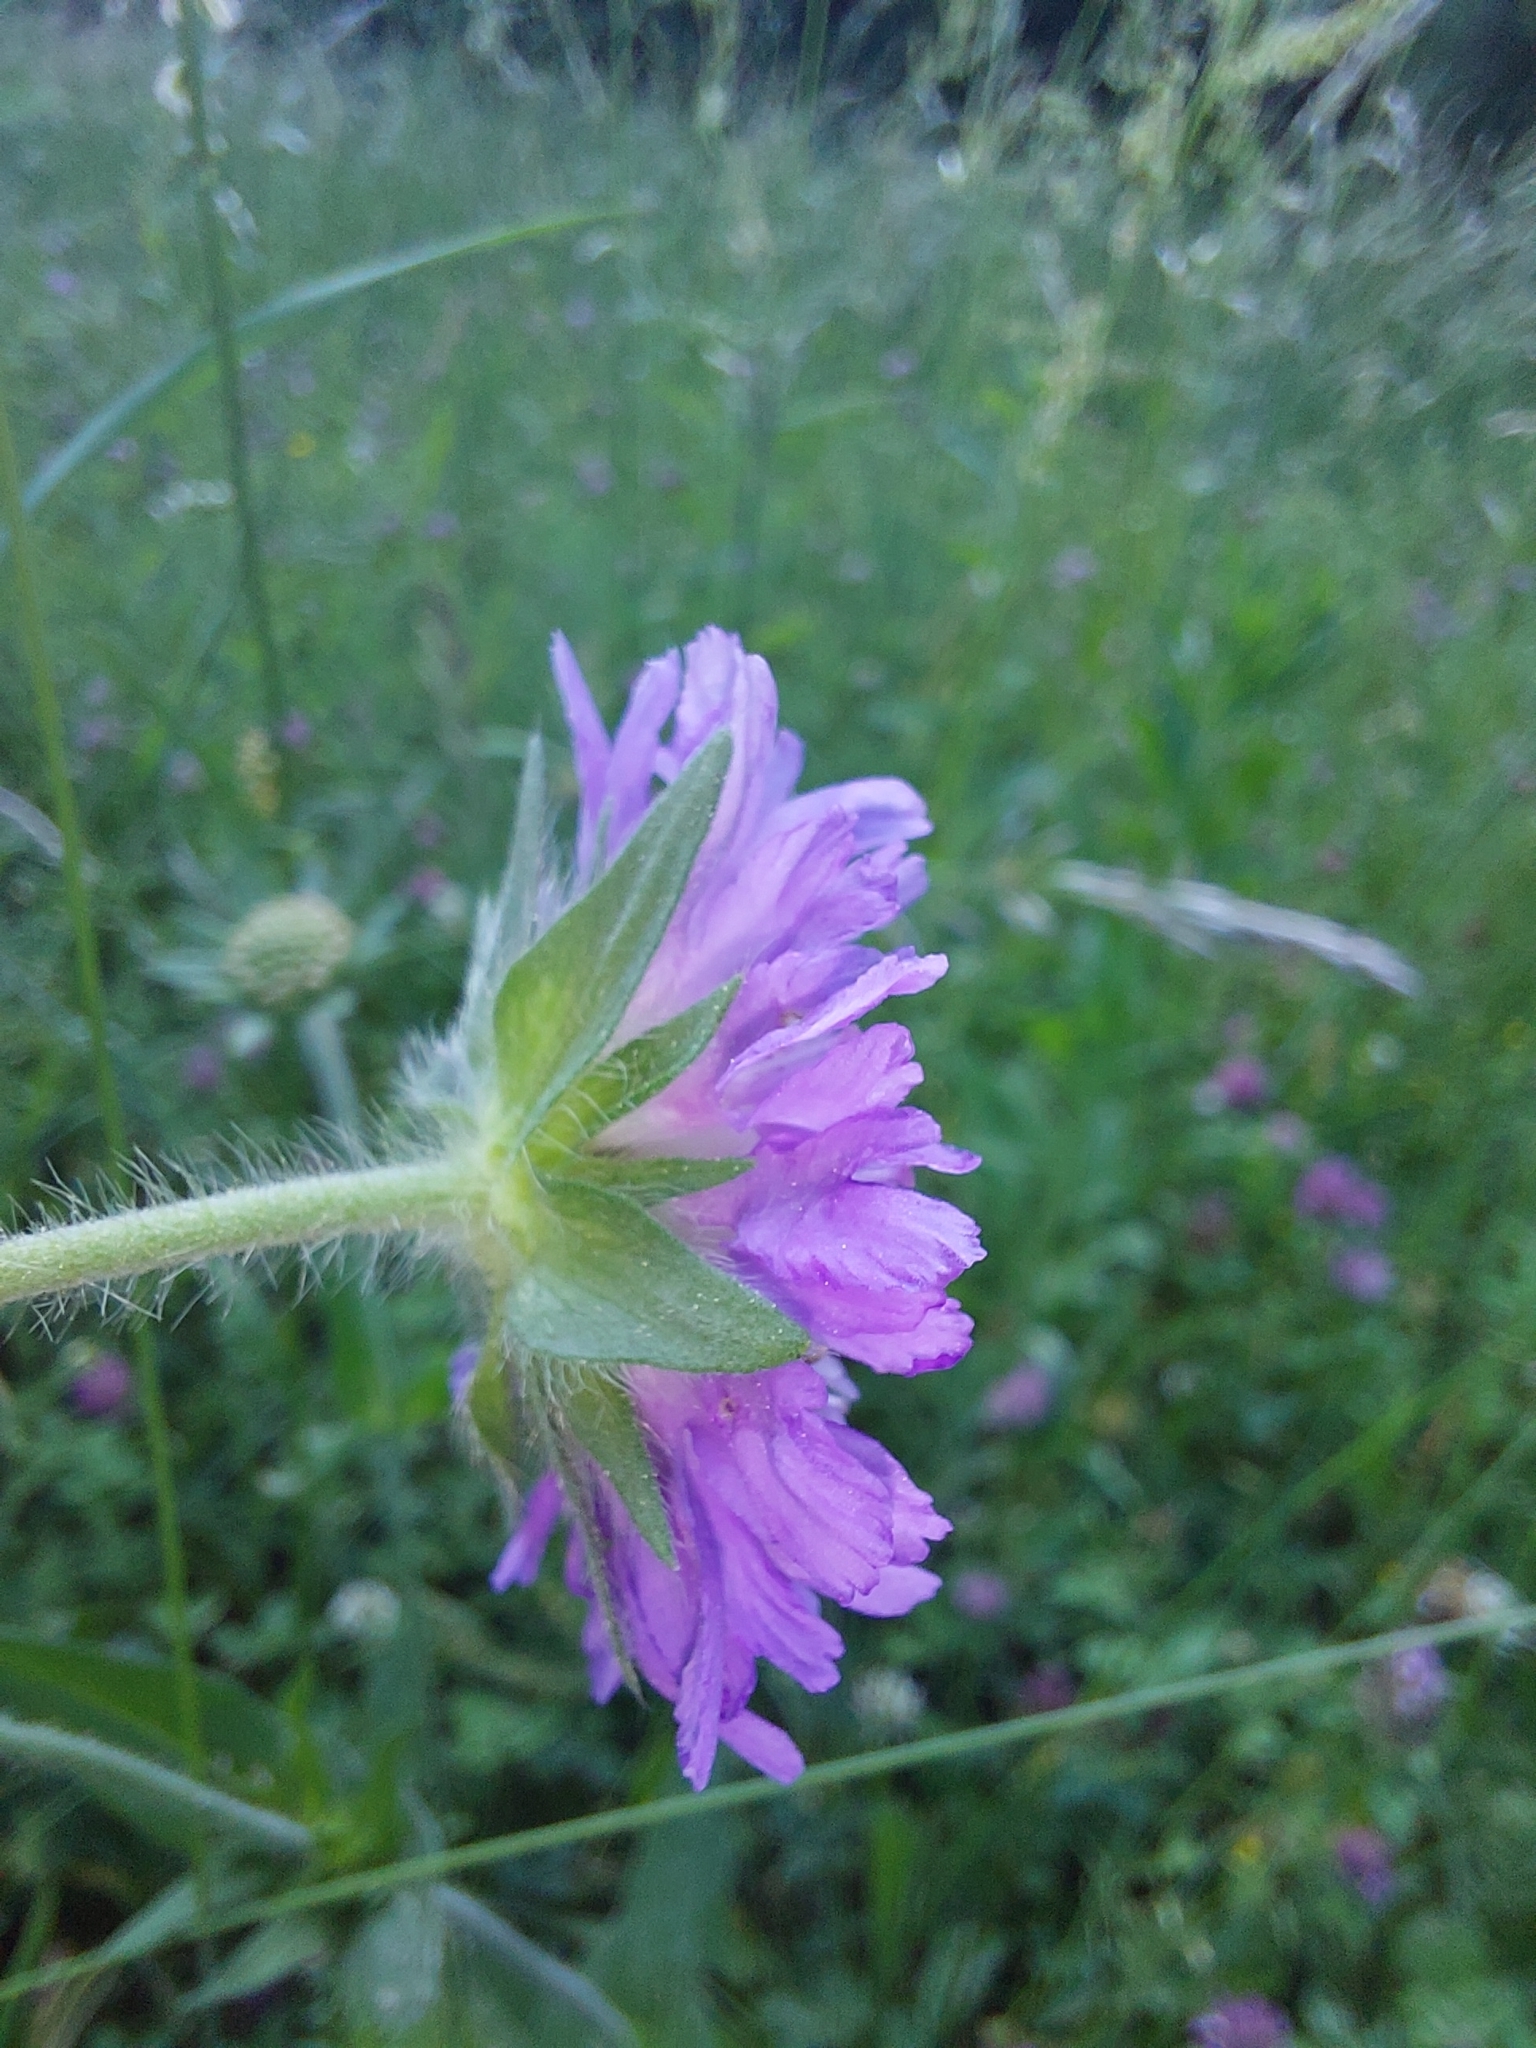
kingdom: Plantae
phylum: Tracheophyta
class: Magnoliopsida
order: Dipsacales
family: Caprifoliaceae
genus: Knautia
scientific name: Knautia arvensis
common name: Field scabiosa
